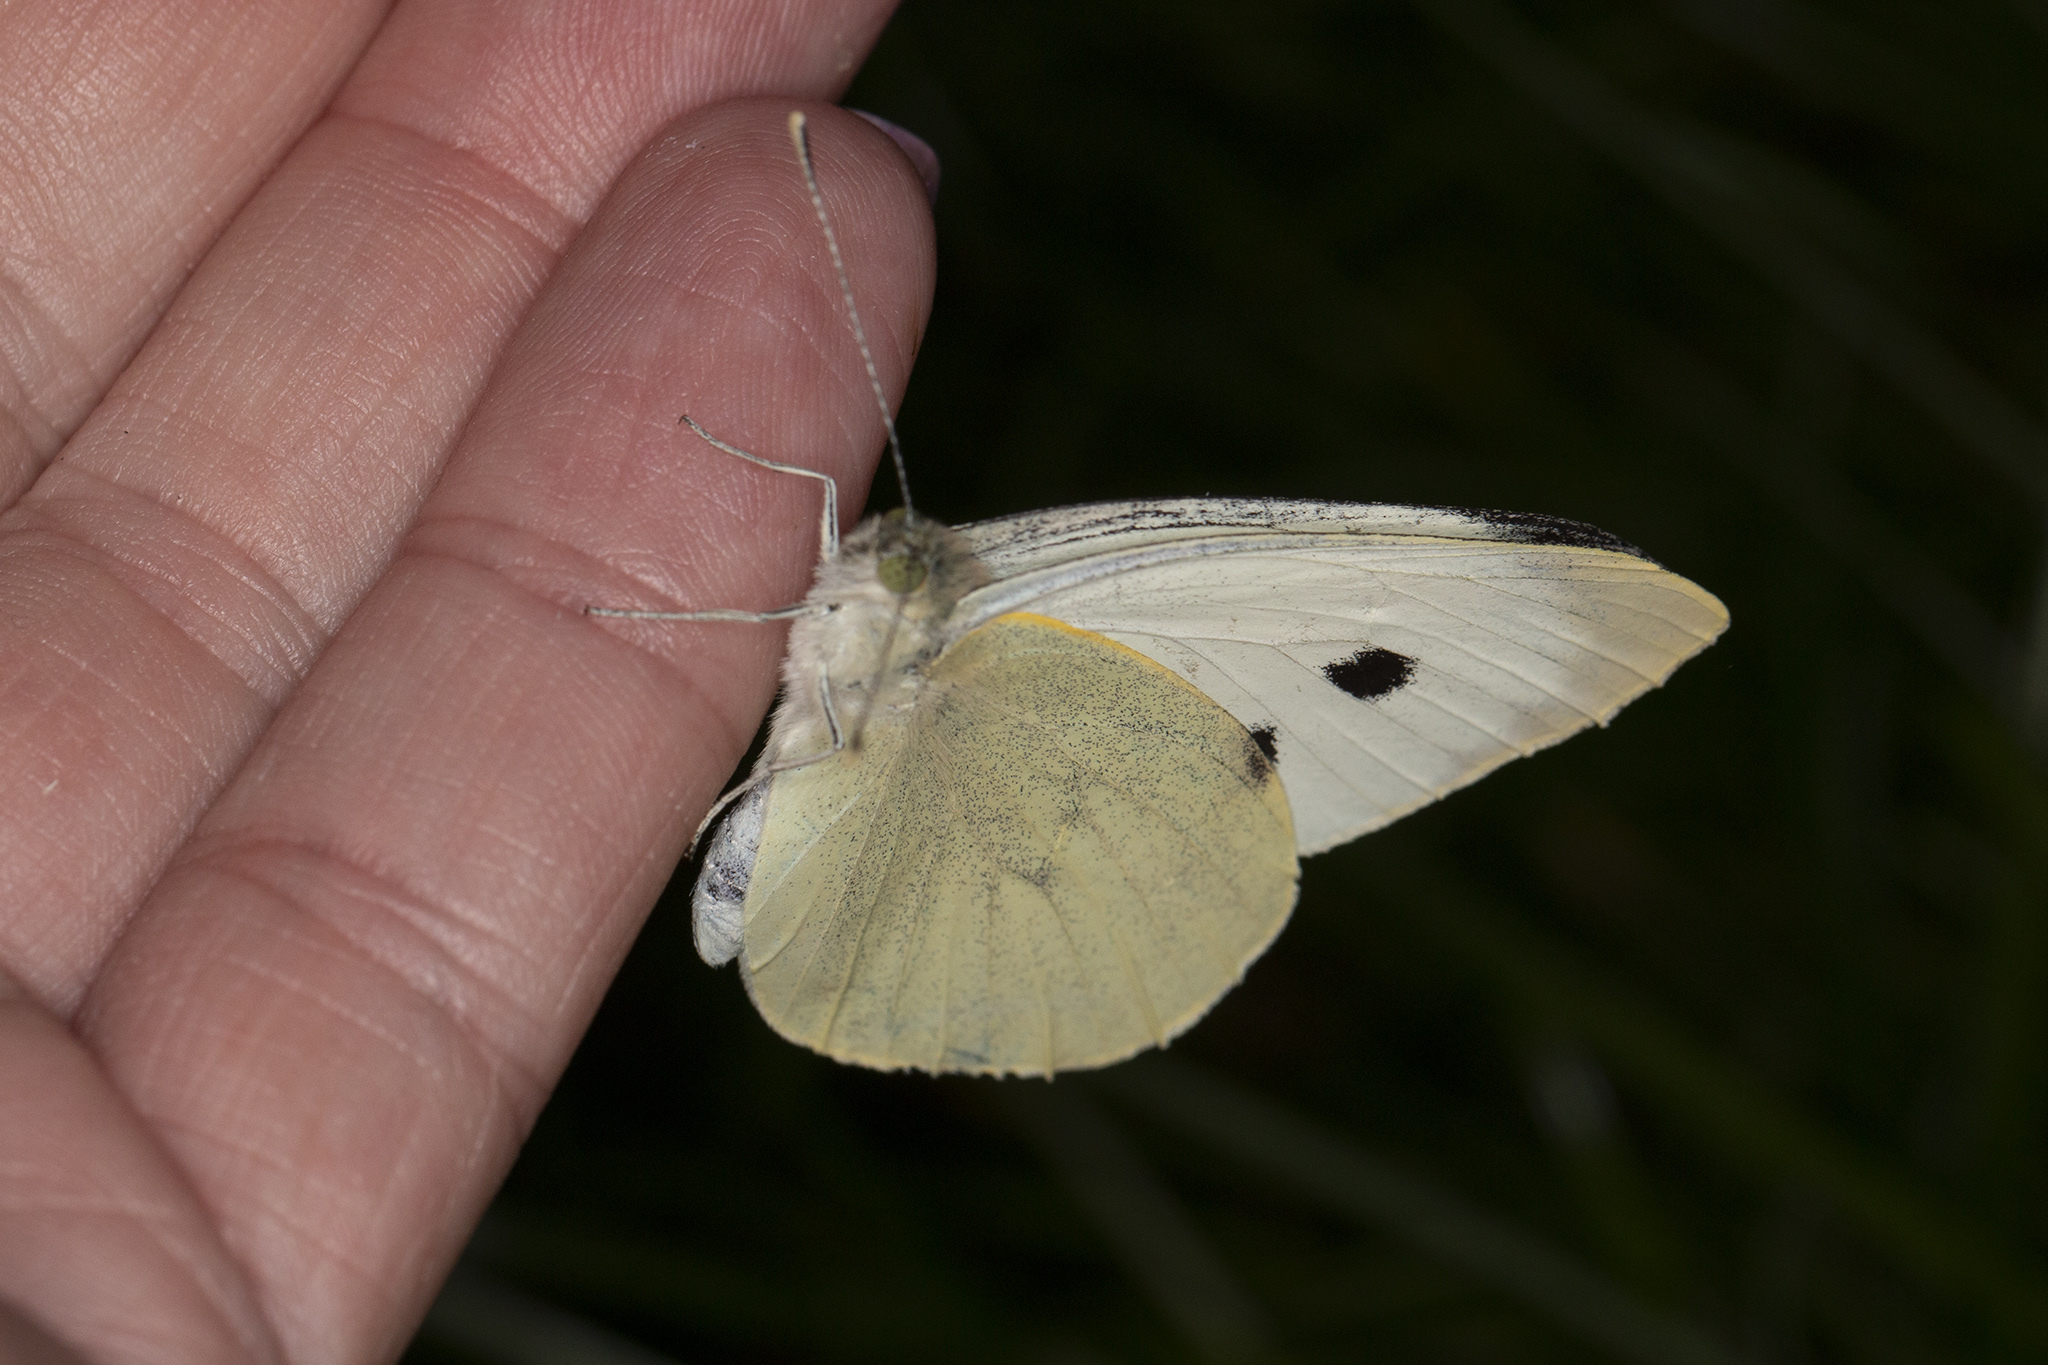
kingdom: Animalia
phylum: Arthropoda
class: Insecta
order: Lepidoptera
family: Pieridae
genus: Pieris
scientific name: Pieris brassicae
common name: Large white
